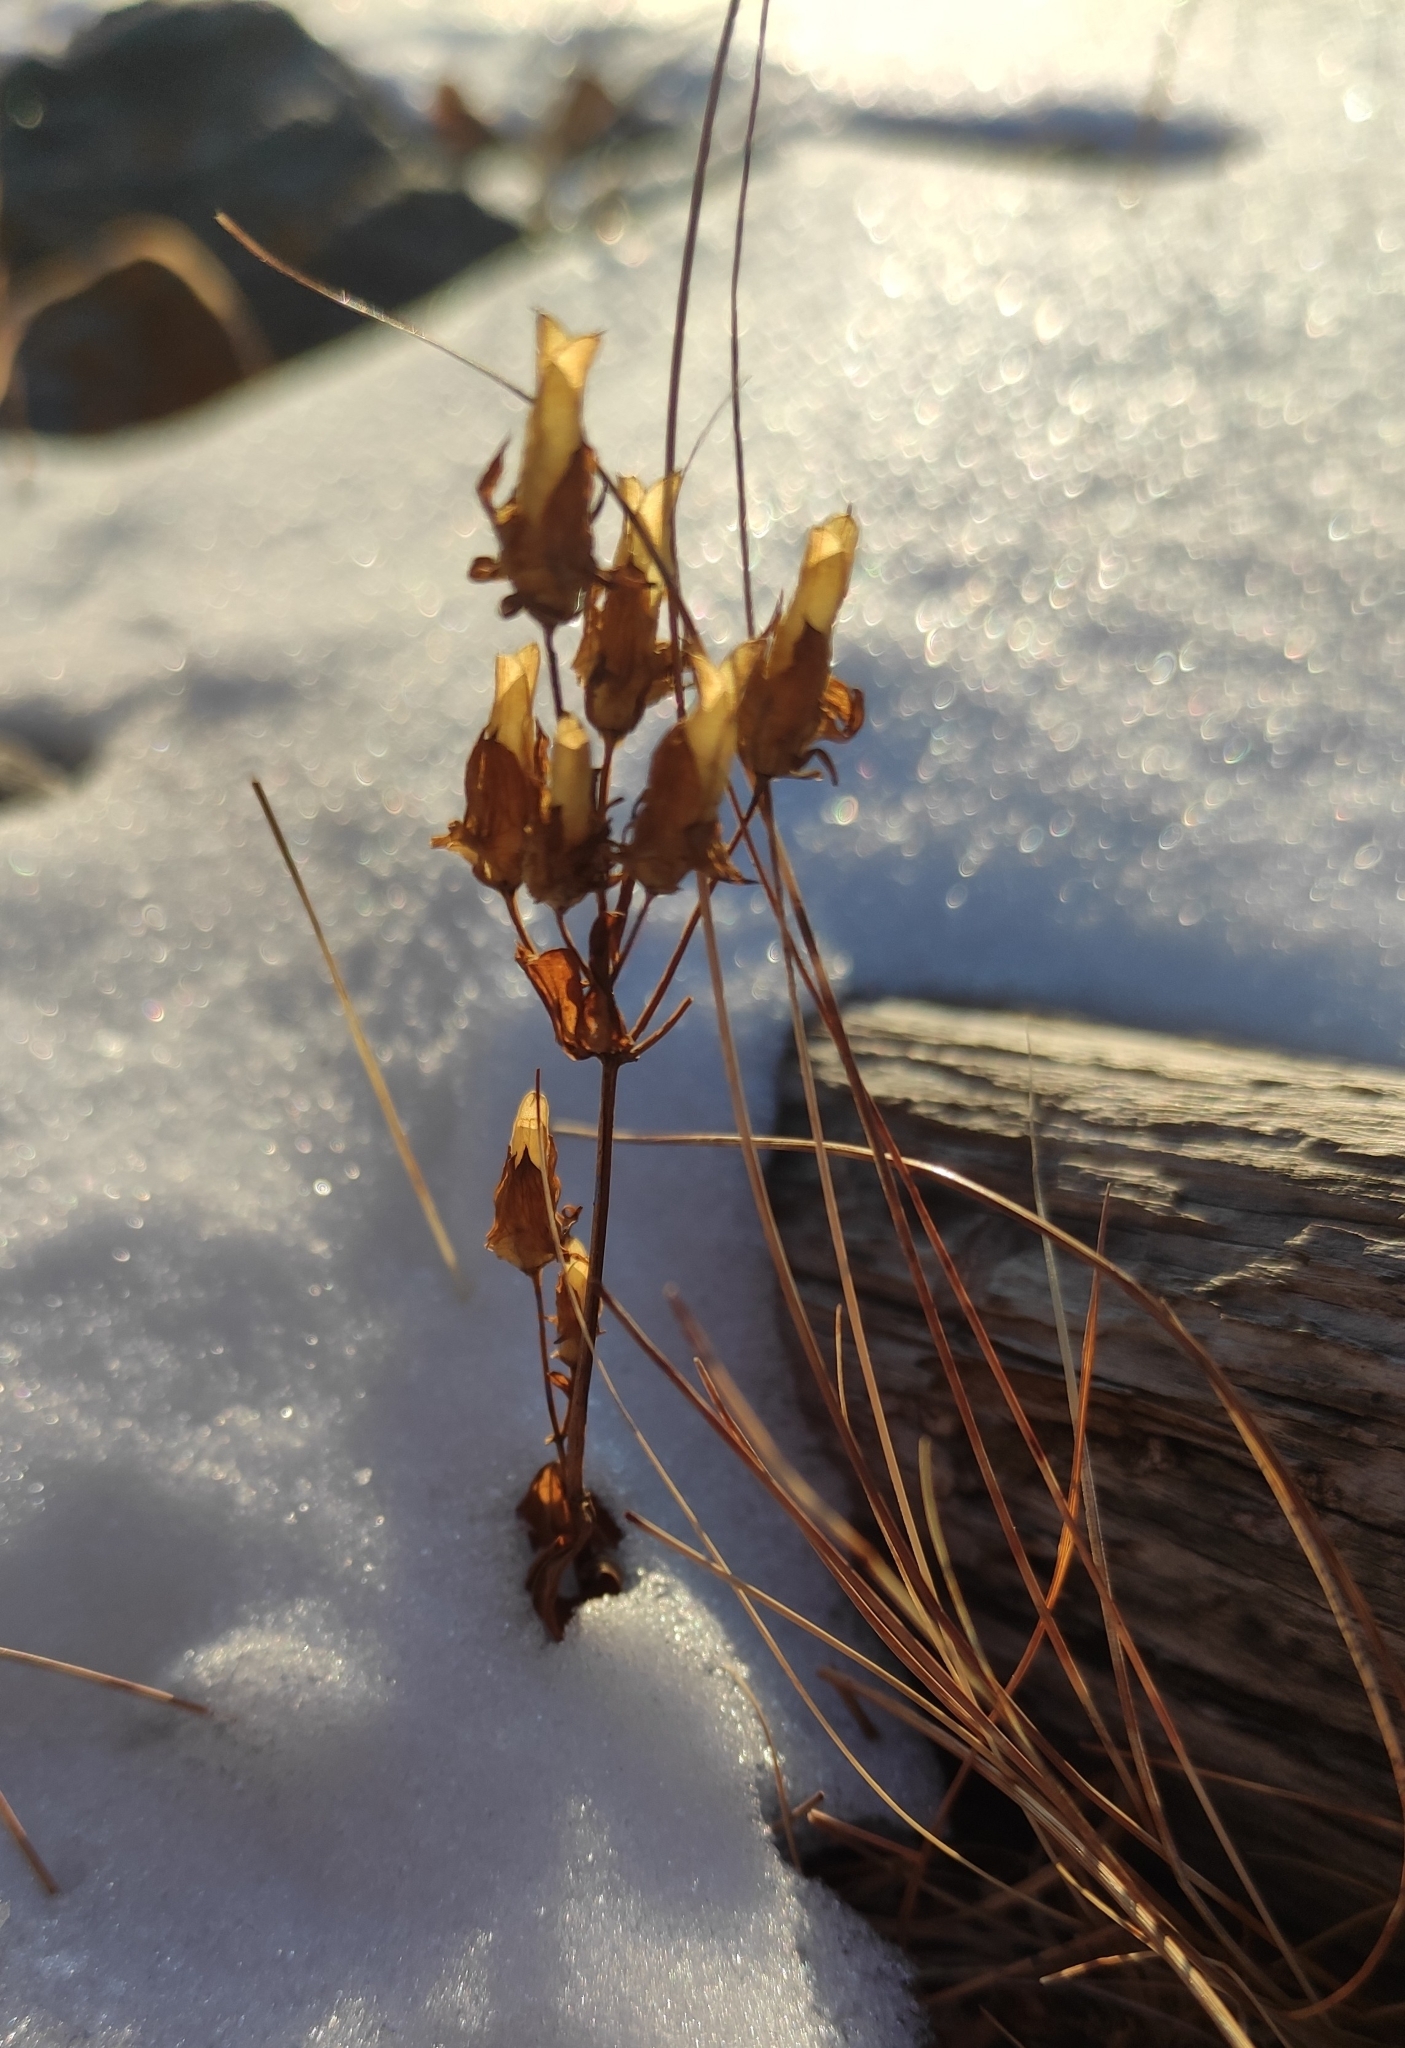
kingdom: Plantae
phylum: Tracheophyta
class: Magnoliopsida
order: Gentianales
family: Gentianaceae
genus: Halenia
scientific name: Halenia corniculata
